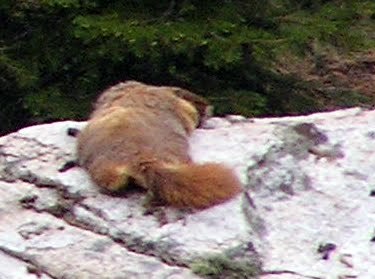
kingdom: Animalia
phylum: Chordata
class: Mammalia
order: Rodentia
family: Sciuridae
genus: Marmota
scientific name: Marmota flaviventris
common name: Yellow-bellied marmot
